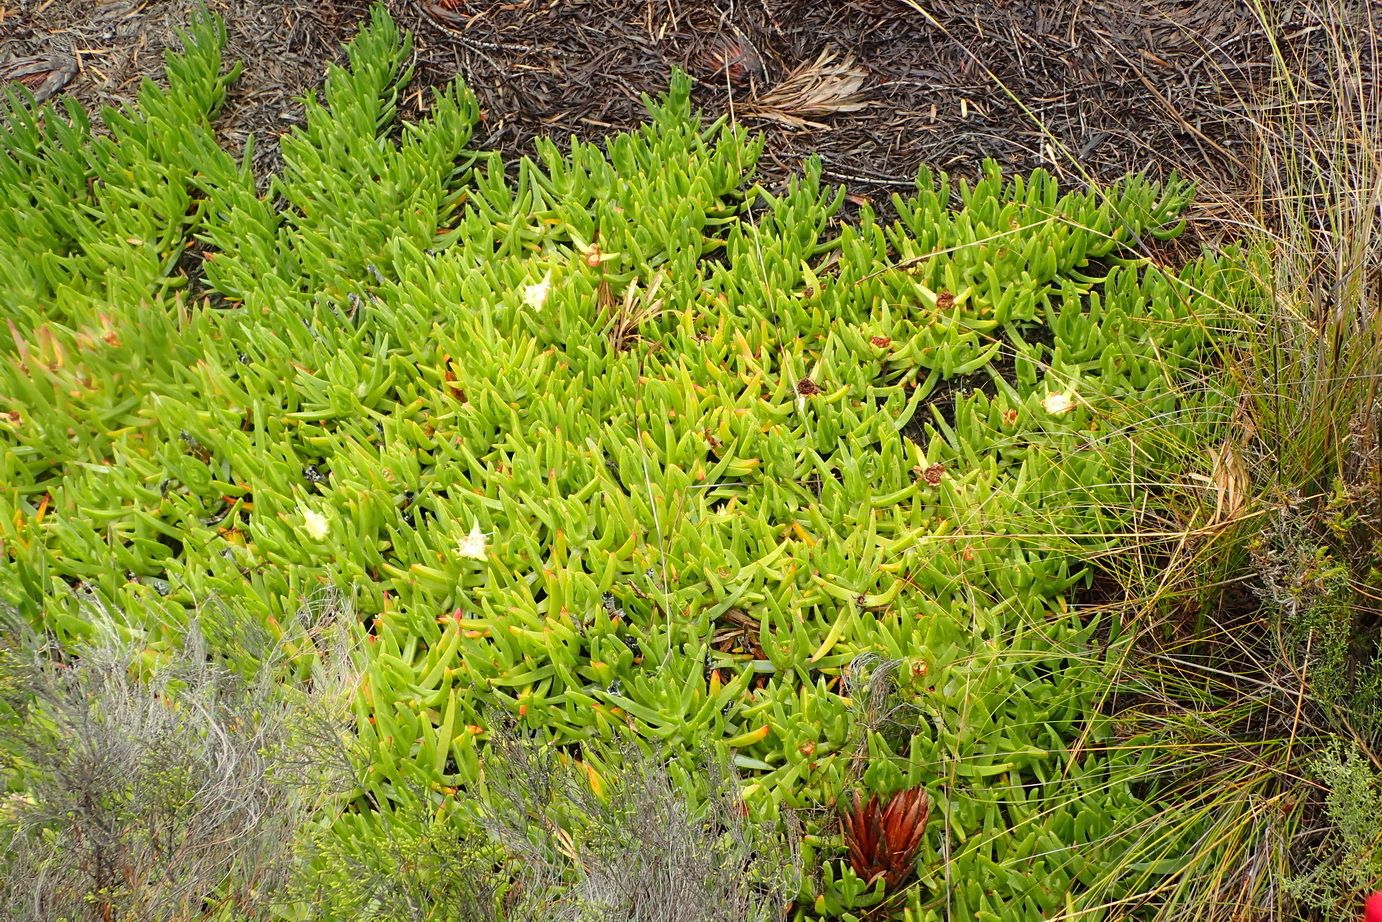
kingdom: Plantae
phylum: Tracheophyta
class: Magnoliopsida
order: Caryophyllales
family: Aizoaceae
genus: Carpobrotus
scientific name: Carpobrotus edulis
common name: Hottentot-fig
